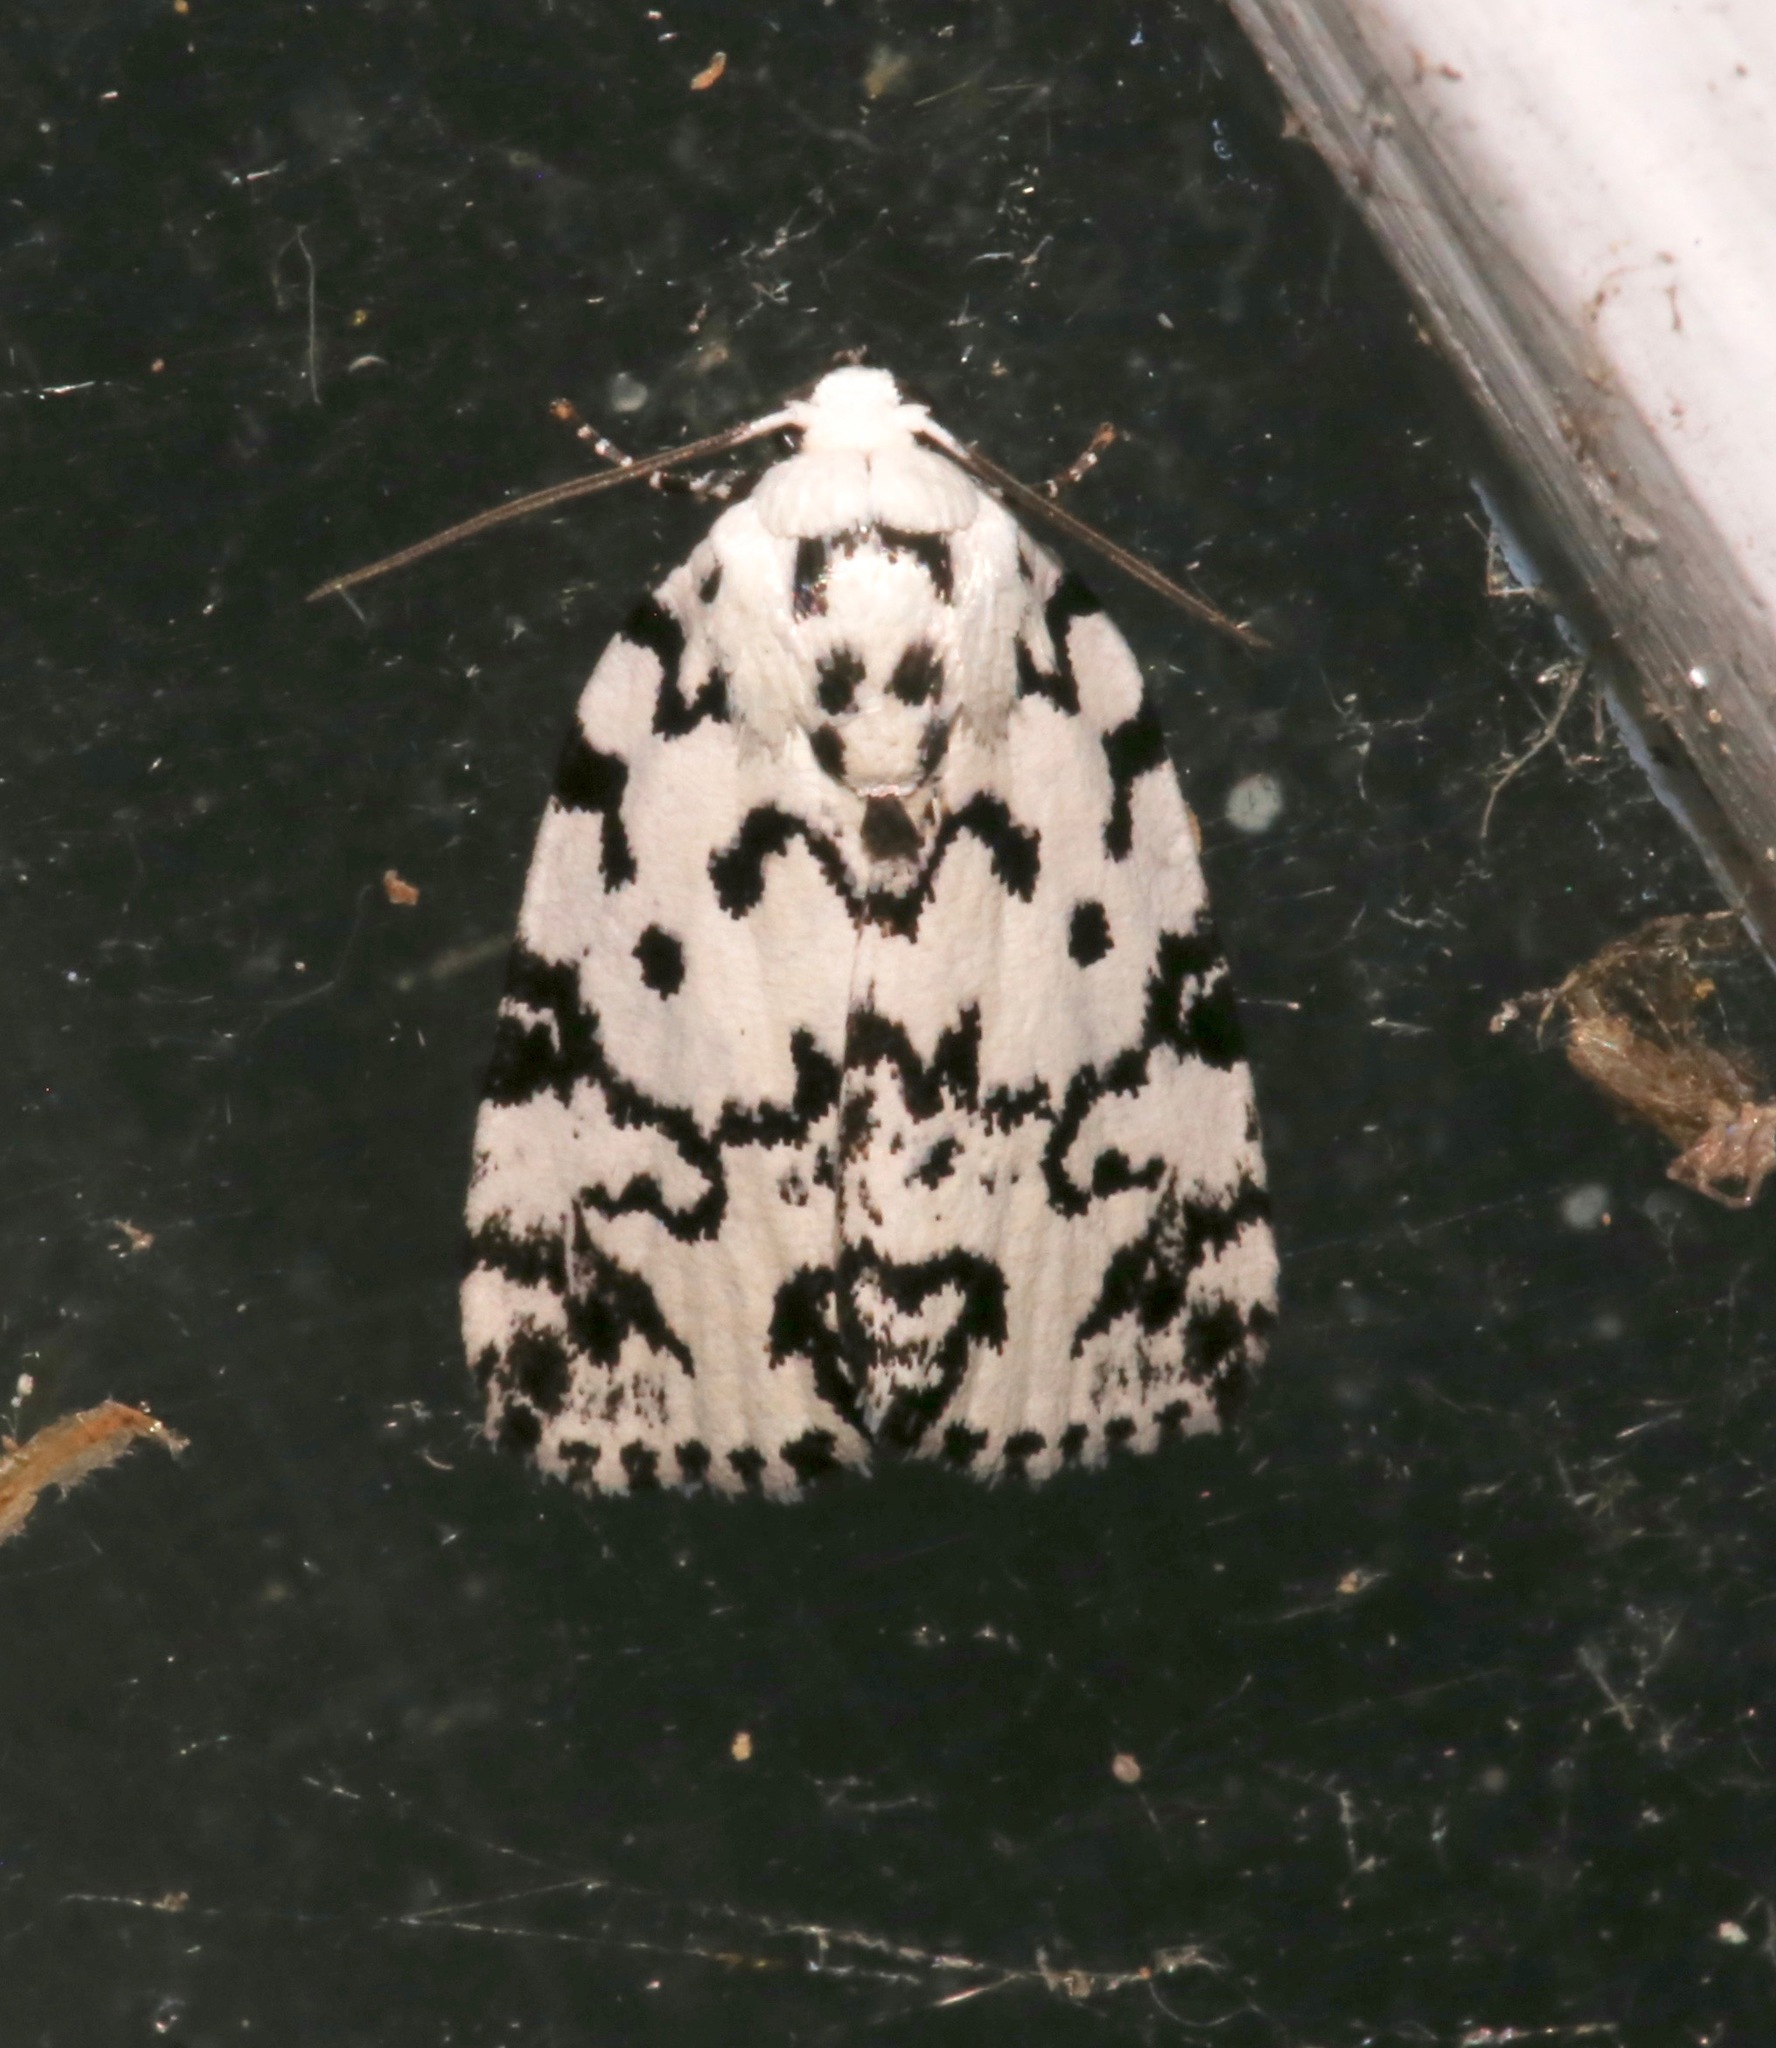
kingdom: Animalia
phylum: Arthropoda
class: Insecta
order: Lepidoptera
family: Noctuidae
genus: Polygrammate
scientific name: Polygrammate hebraeicum
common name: Hebrew moth
